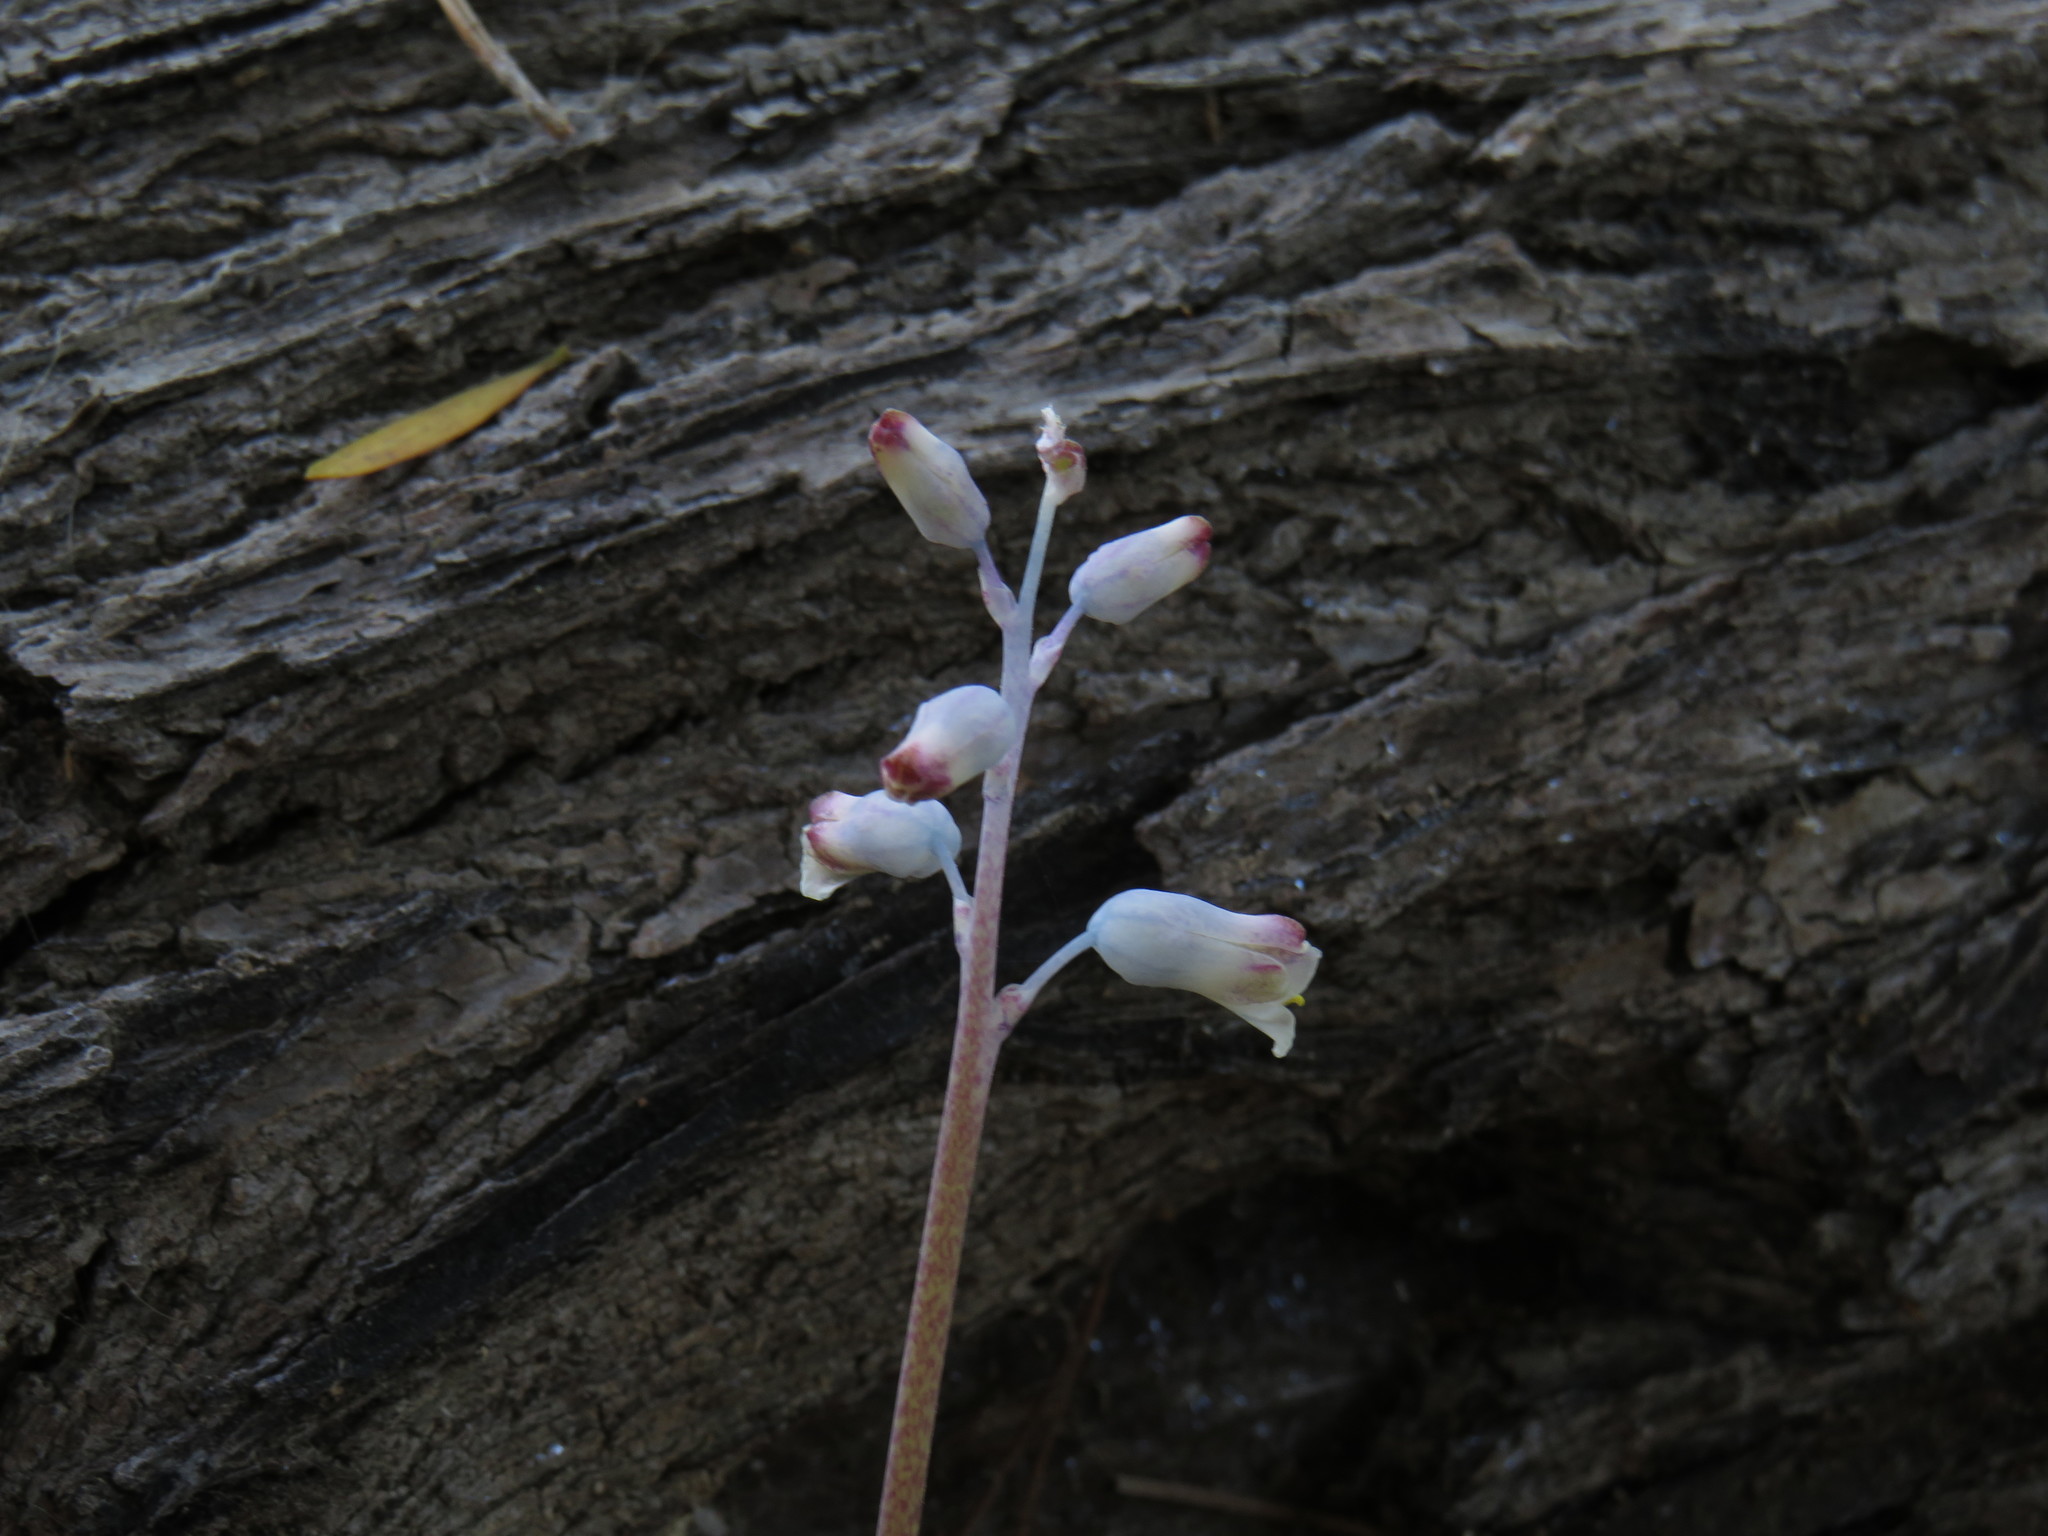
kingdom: Plantae
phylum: Tracheophyta
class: Liliopsida
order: Asparagales
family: Asparagaceae
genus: Lachenalia
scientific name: Lachenalia unifolia
